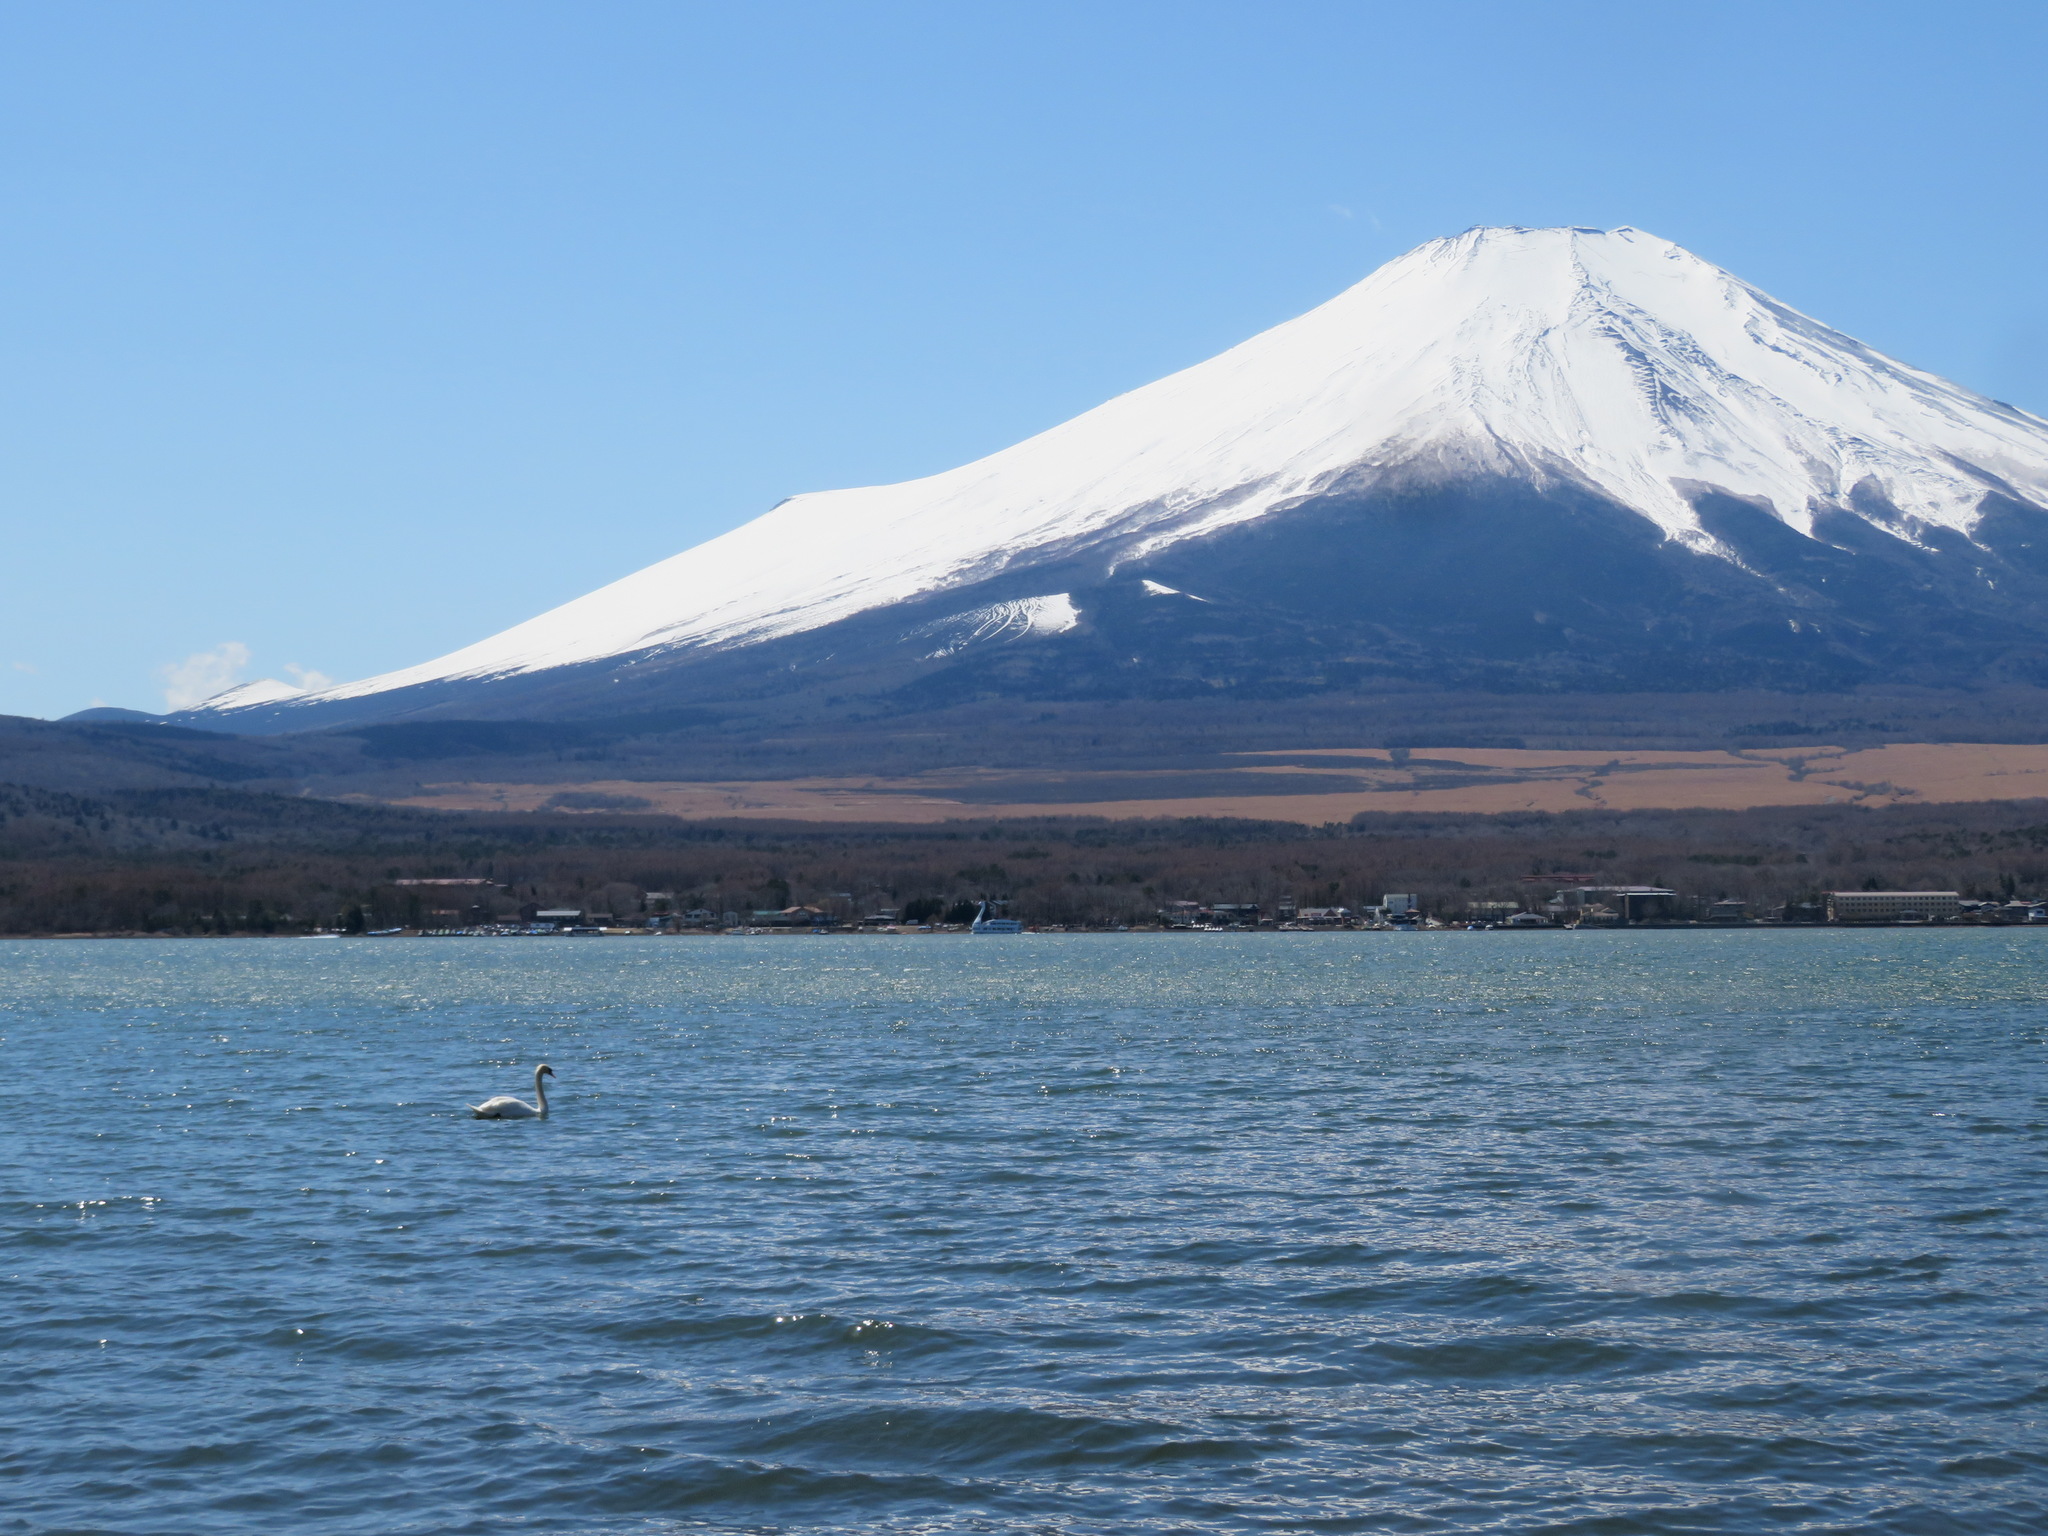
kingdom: Animalia
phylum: Chordata
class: Aves
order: Anseriformes
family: Anatidae
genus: Cygnus
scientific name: Cygnus olor
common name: Mute swan
